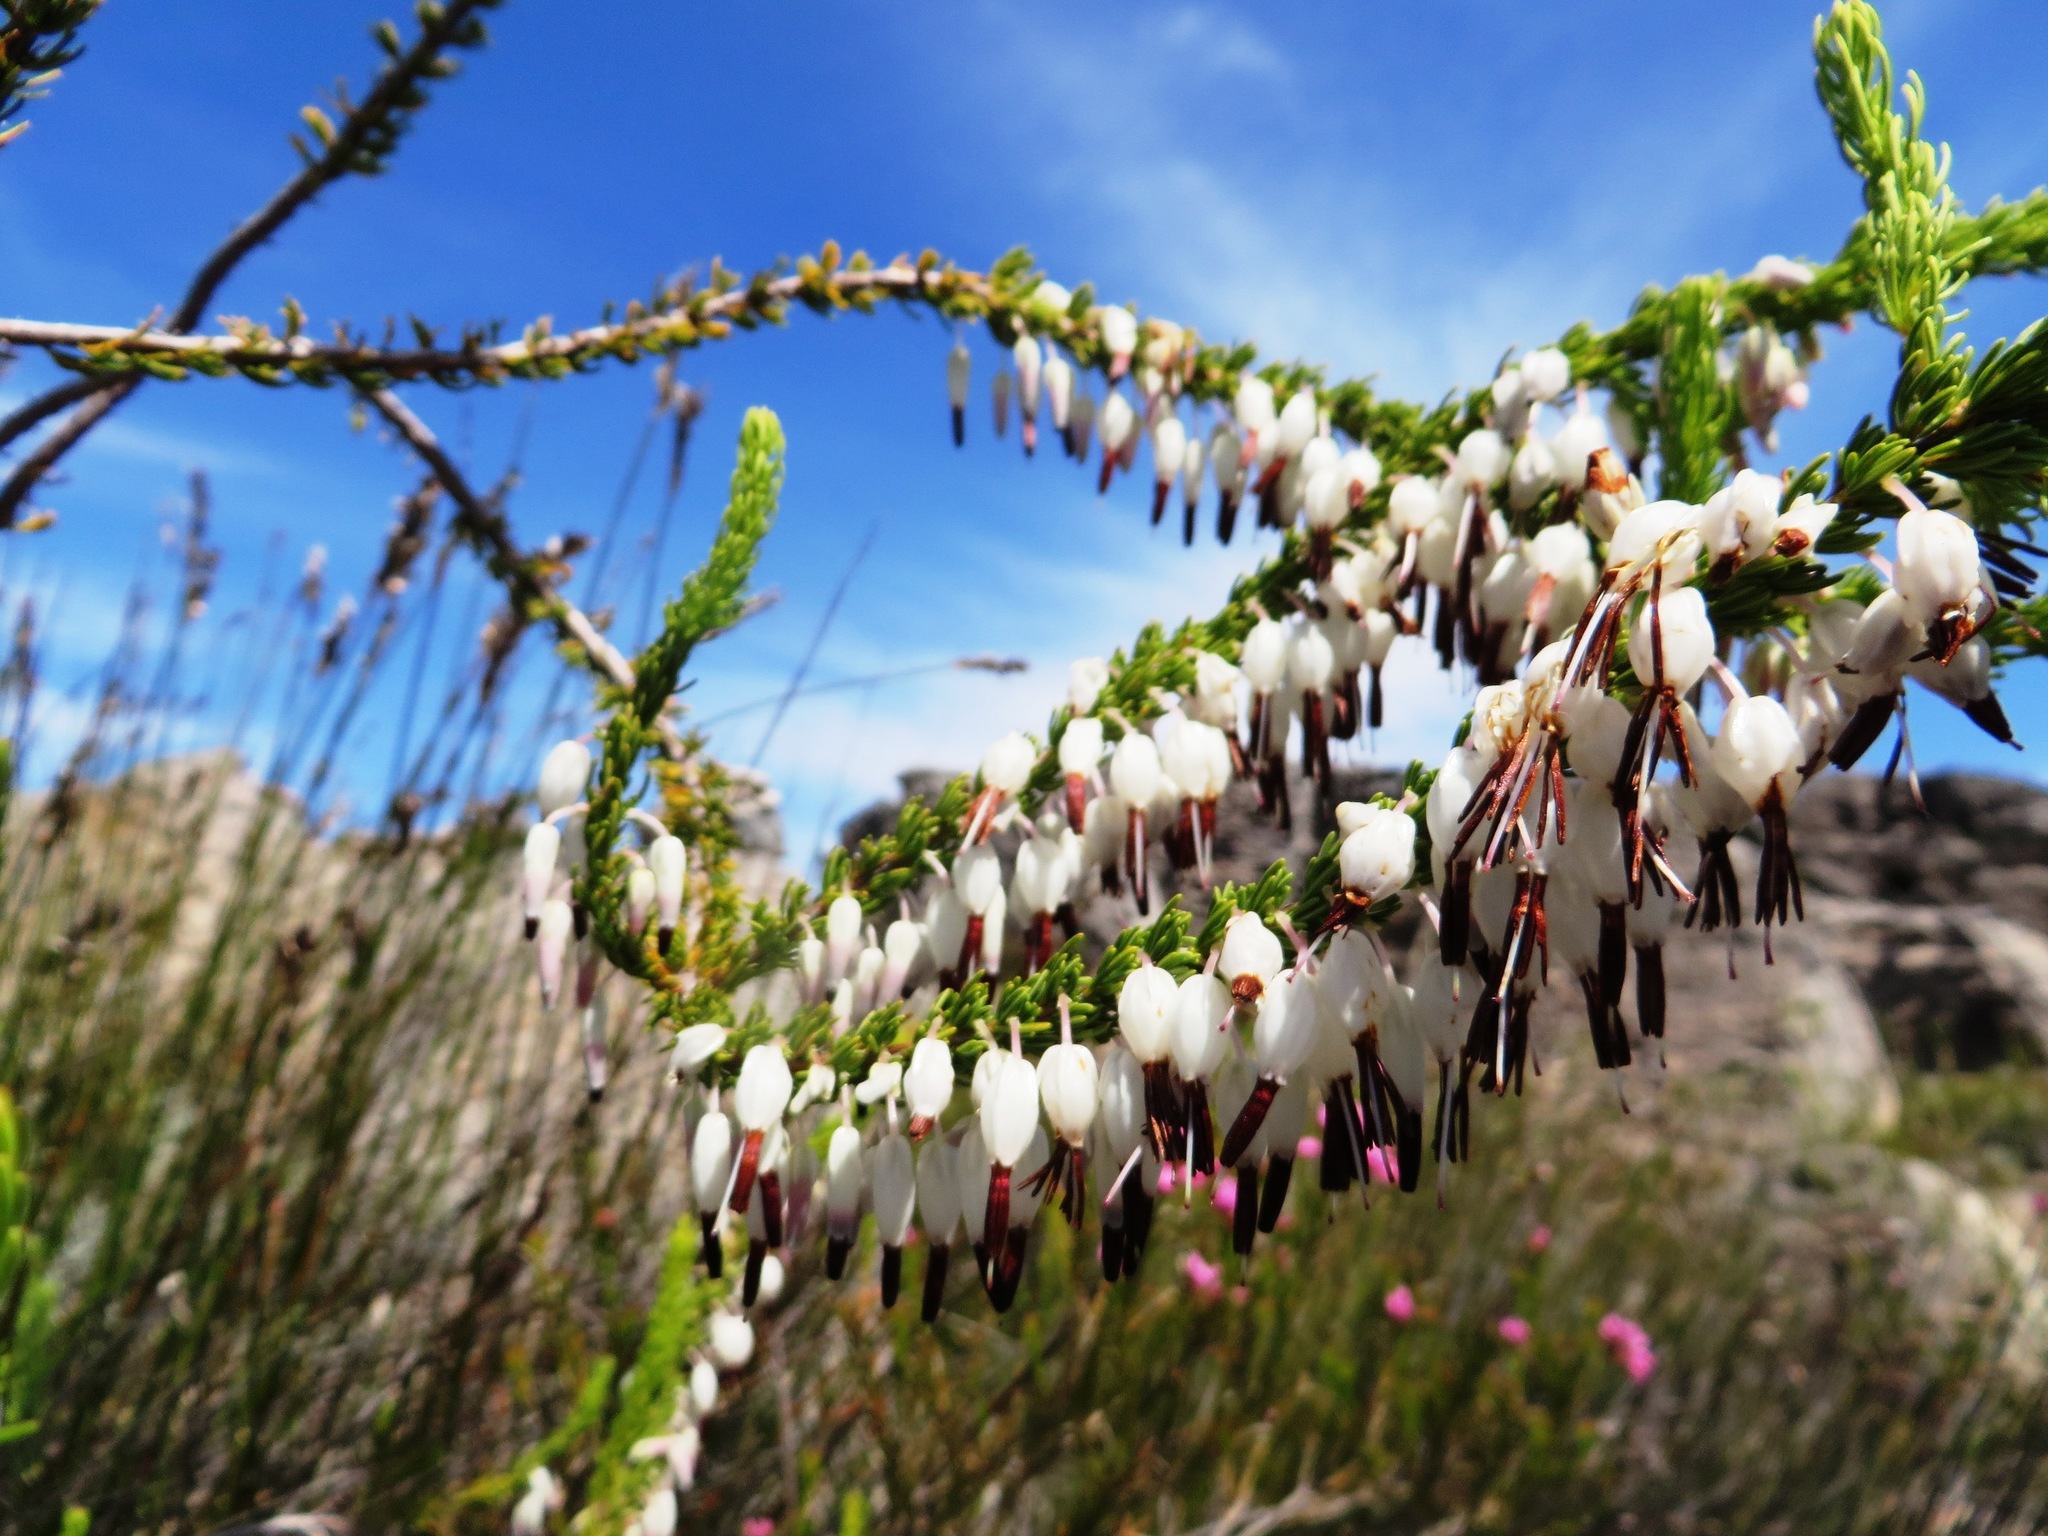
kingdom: Plantae
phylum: Tracheophyta
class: Magnoliopsida
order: Ericales
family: Ericaceae
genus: Erica
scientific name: Erica plukenetii
